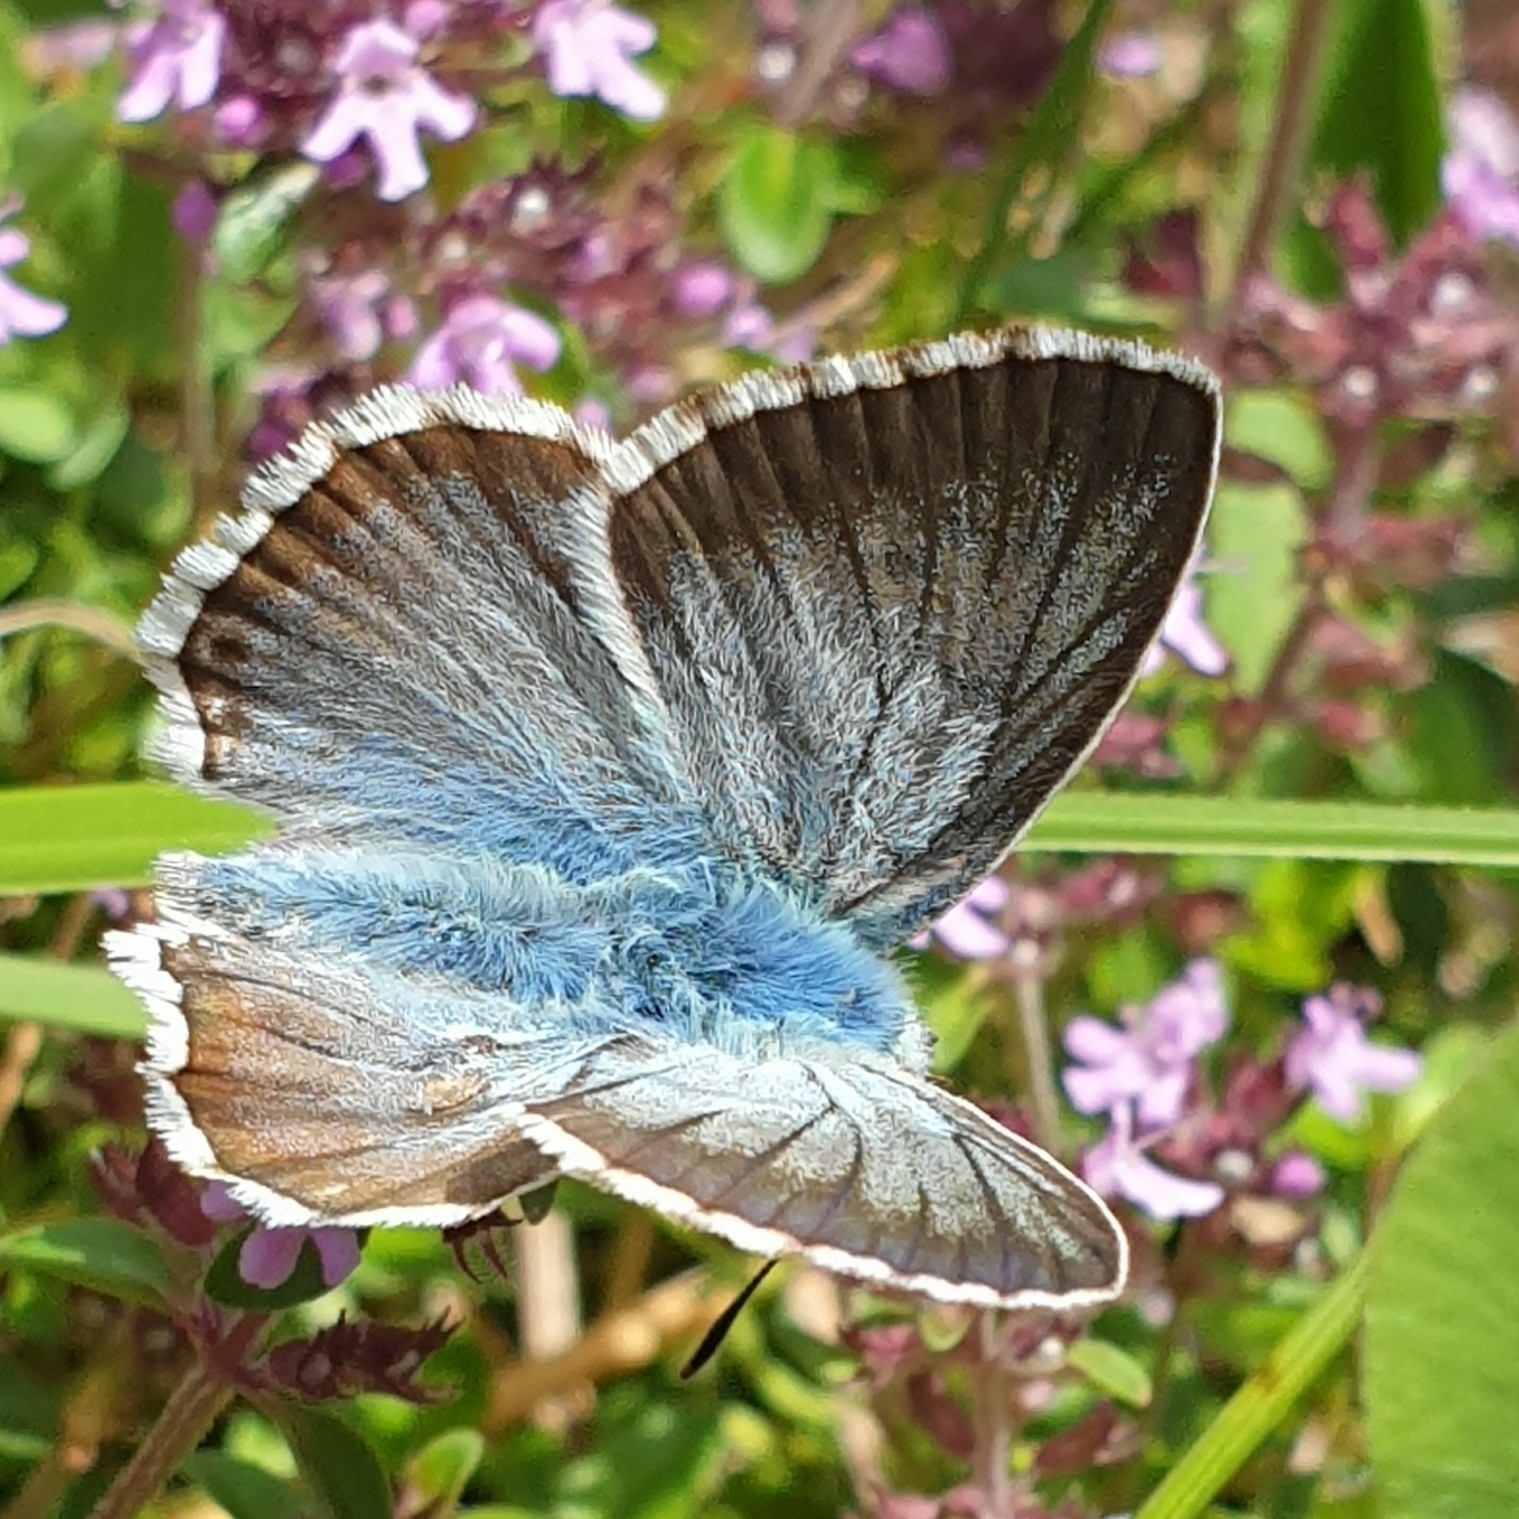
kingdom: Animalia
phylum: Arthropoda
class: Insecta
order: Lepidoptera
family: Lycaenidae
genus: Lysandra
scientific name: Lysandra coridon
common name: Chalkhill blue
